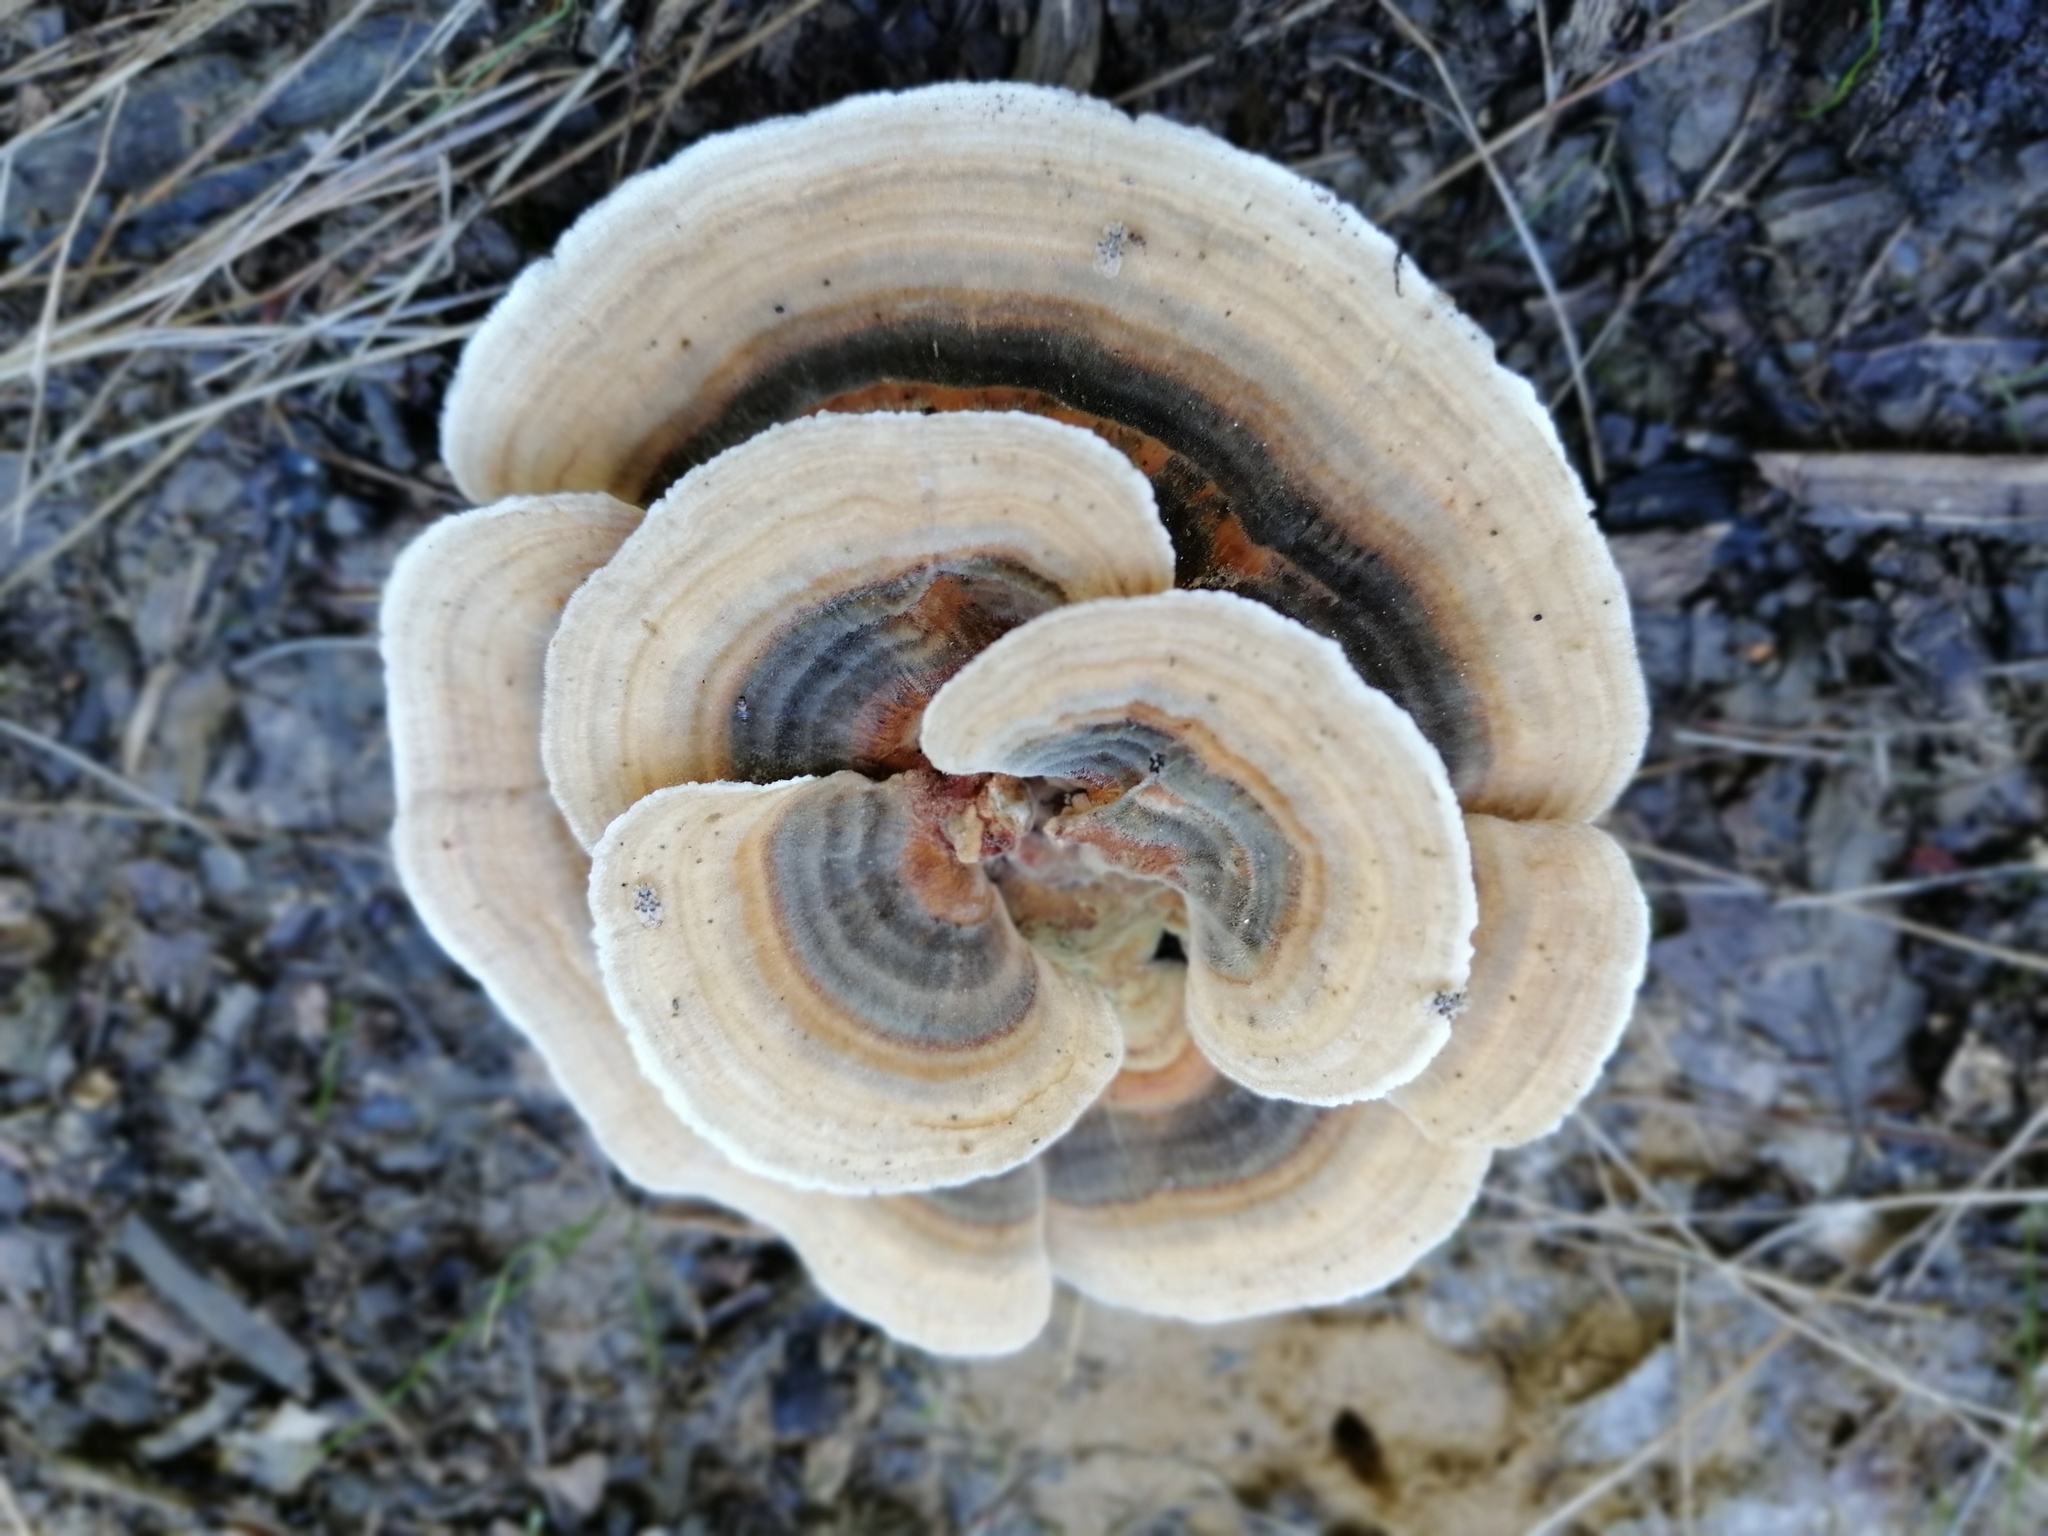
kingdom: Fungi
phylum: Basidiomycota
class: Agaricomycetes
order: Polyporales
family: Polyporaceae
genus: Trametes
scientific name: Trametes versicolor
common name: Turkeytail
